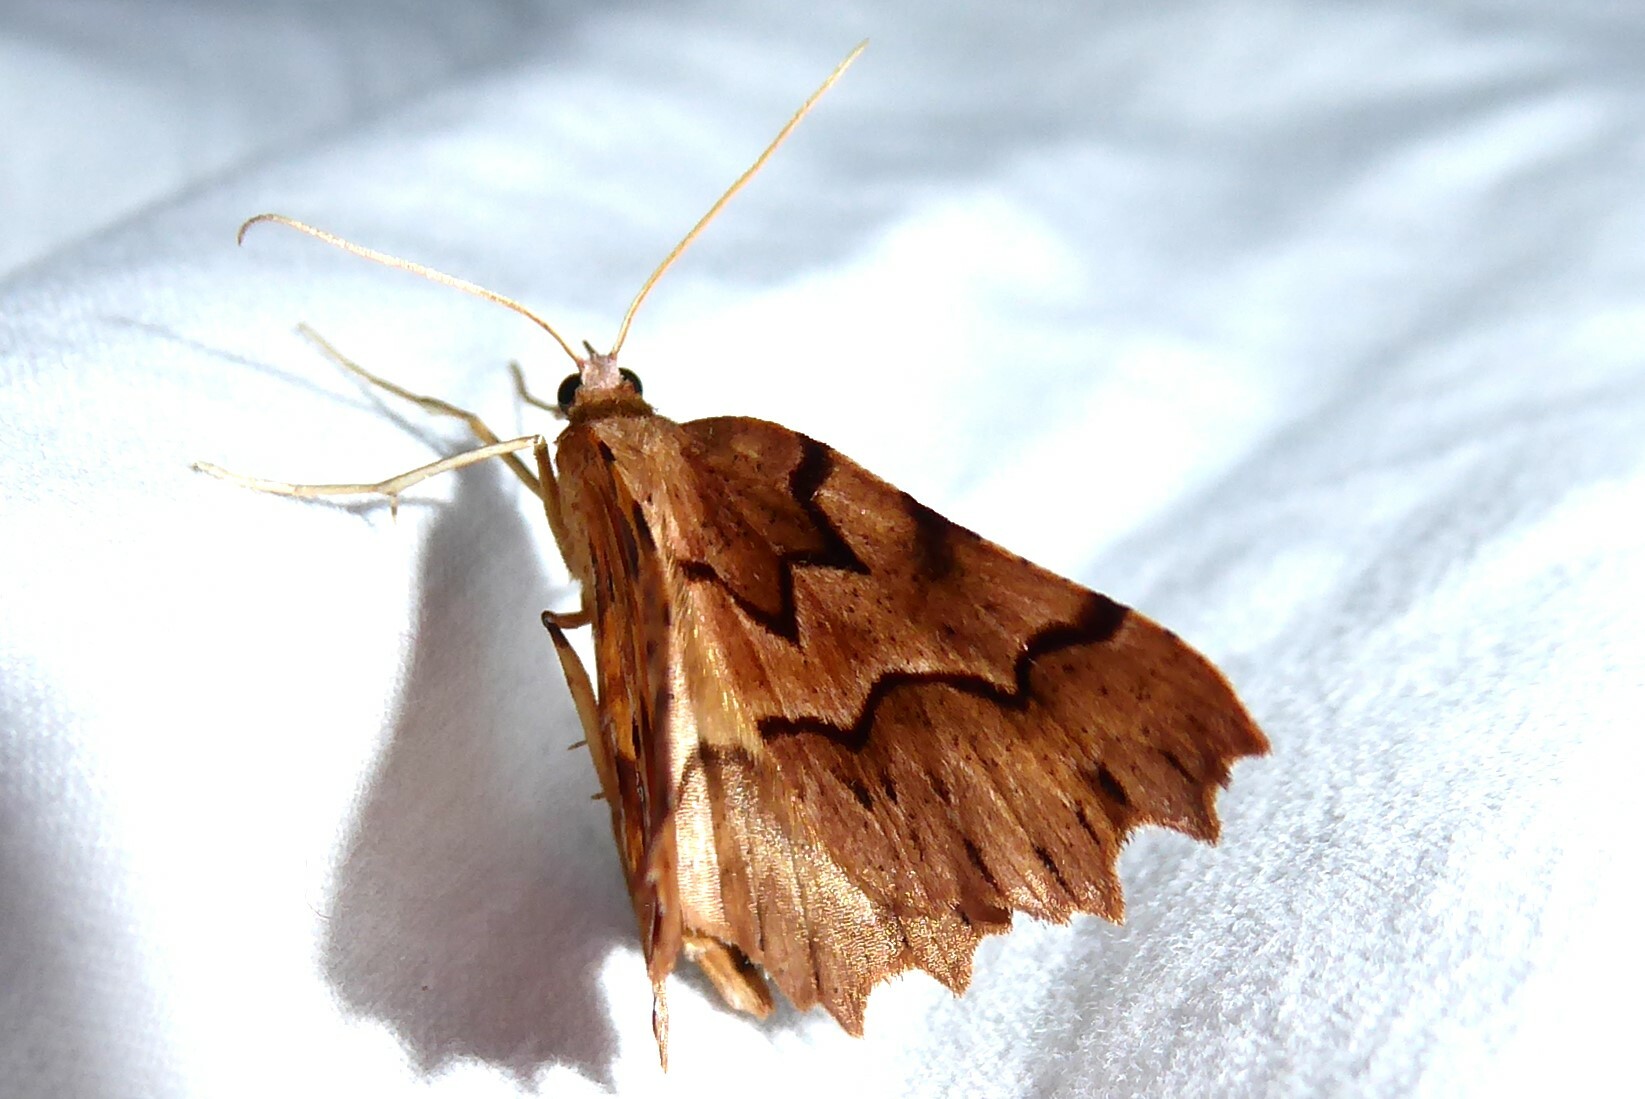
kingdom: Animalia
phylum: Arthropoda
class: Insecta
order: Lepidoptera
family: Geometridae
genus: Ischalis
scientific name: Ischalis fortinata
